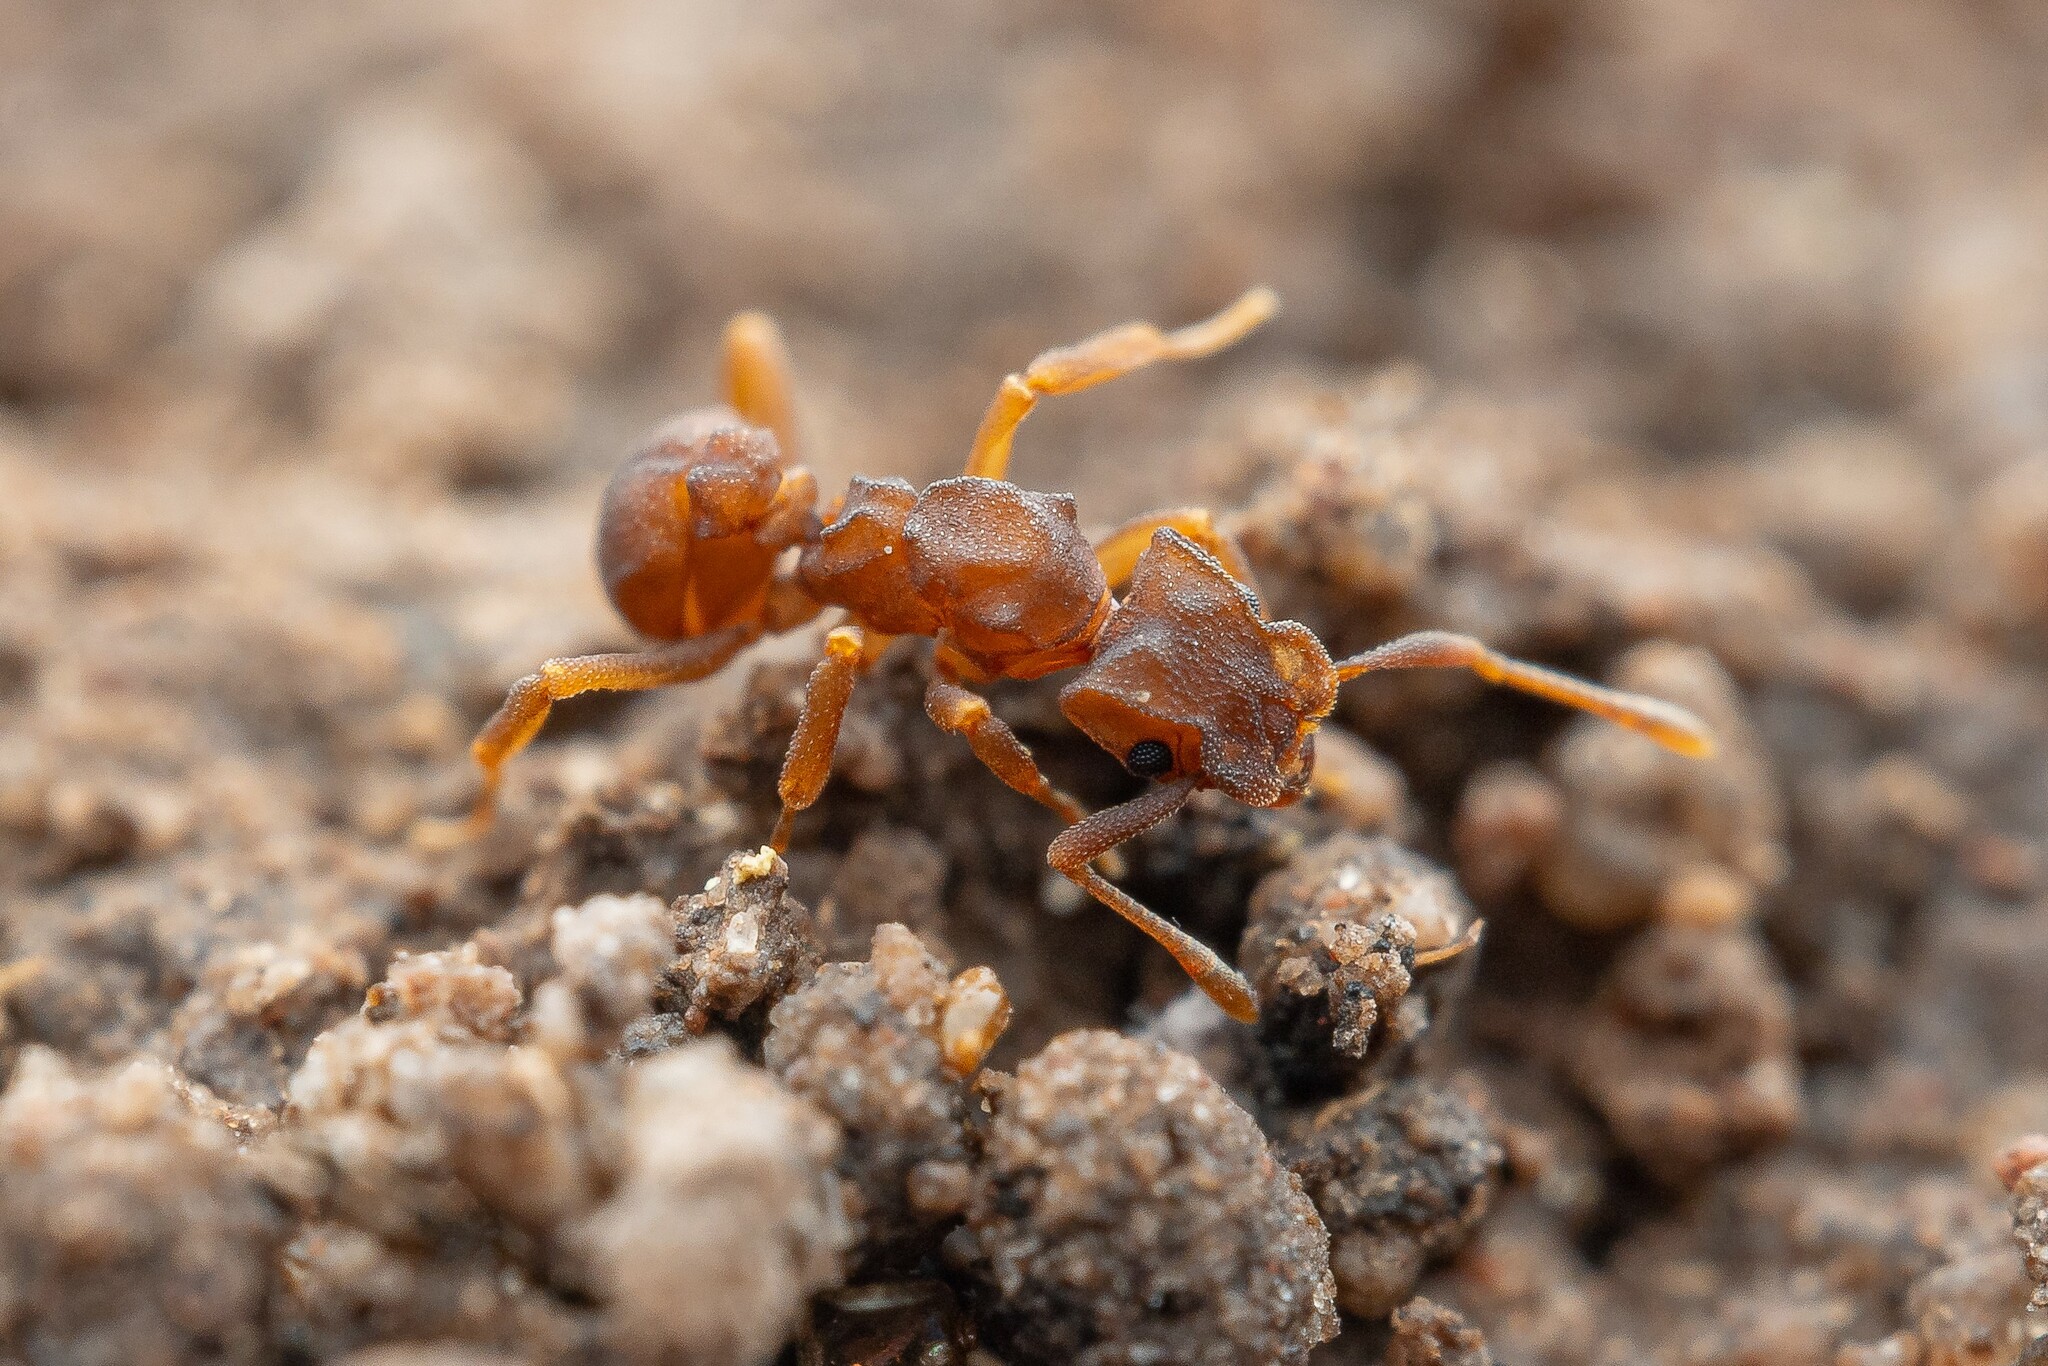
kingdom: Animalia
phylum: Arthropoda
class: Insecta
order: Hymenoptera
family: Formicidae
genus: Cyphomyrmex
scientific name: Cyphomyrmex flavidus
